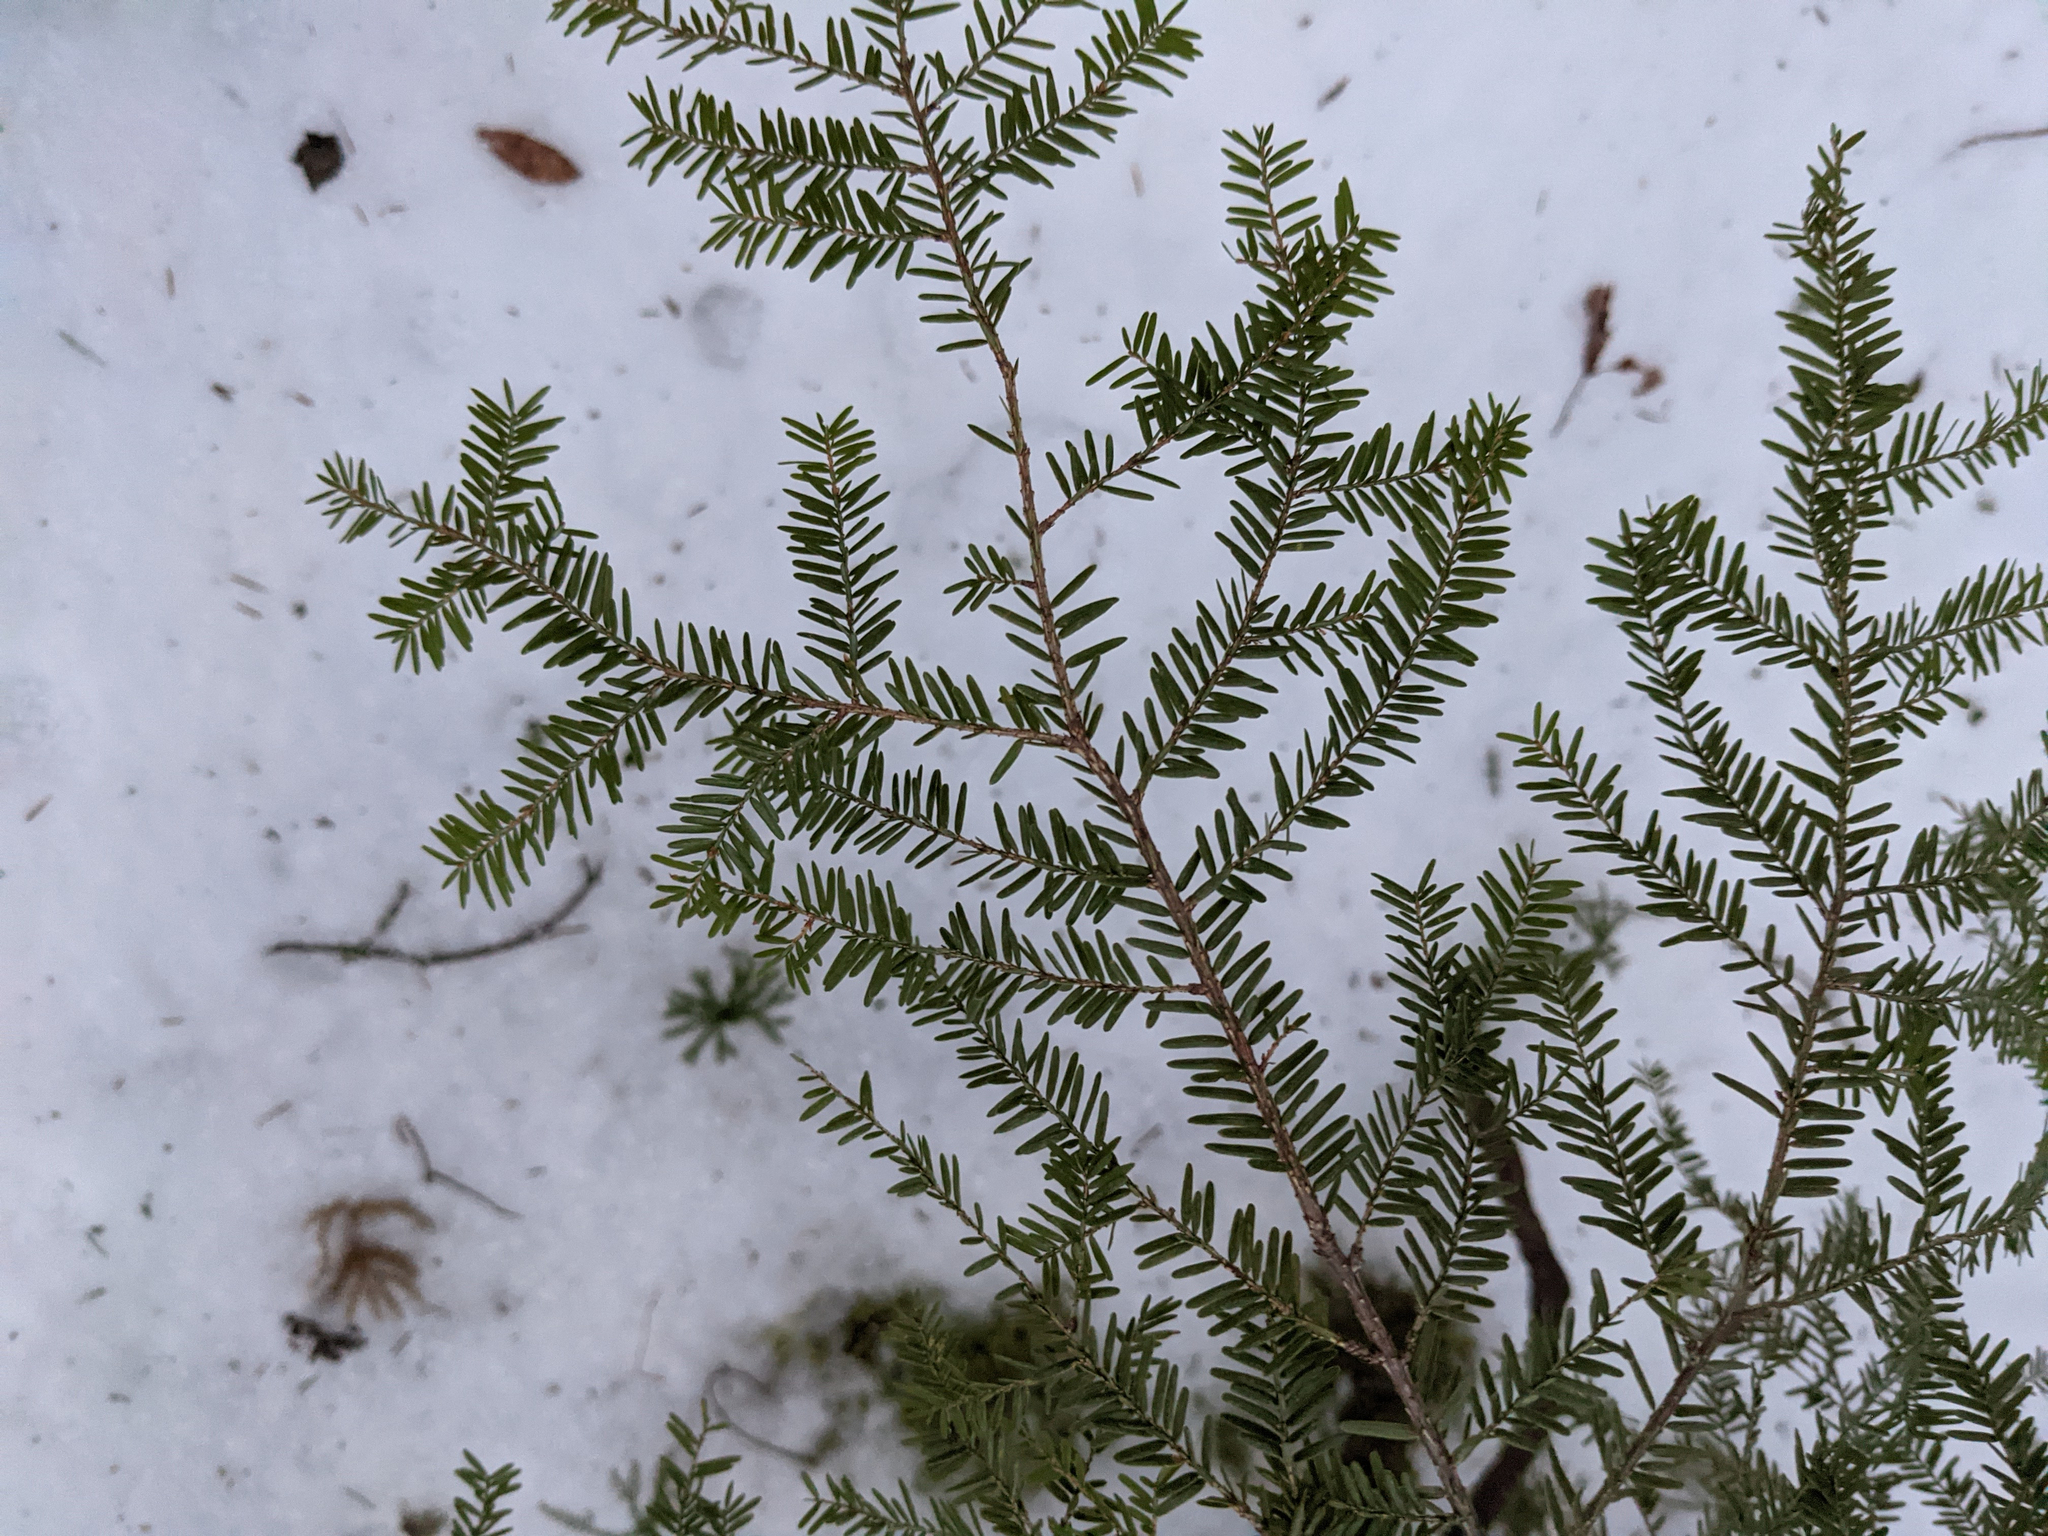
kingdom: Plantae
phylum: Tracheophyta
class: Pinopsida
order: Pinales
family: Pinaceae
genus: Tsuga
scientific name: Tsuga canadensis
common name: Eastern hemlock
